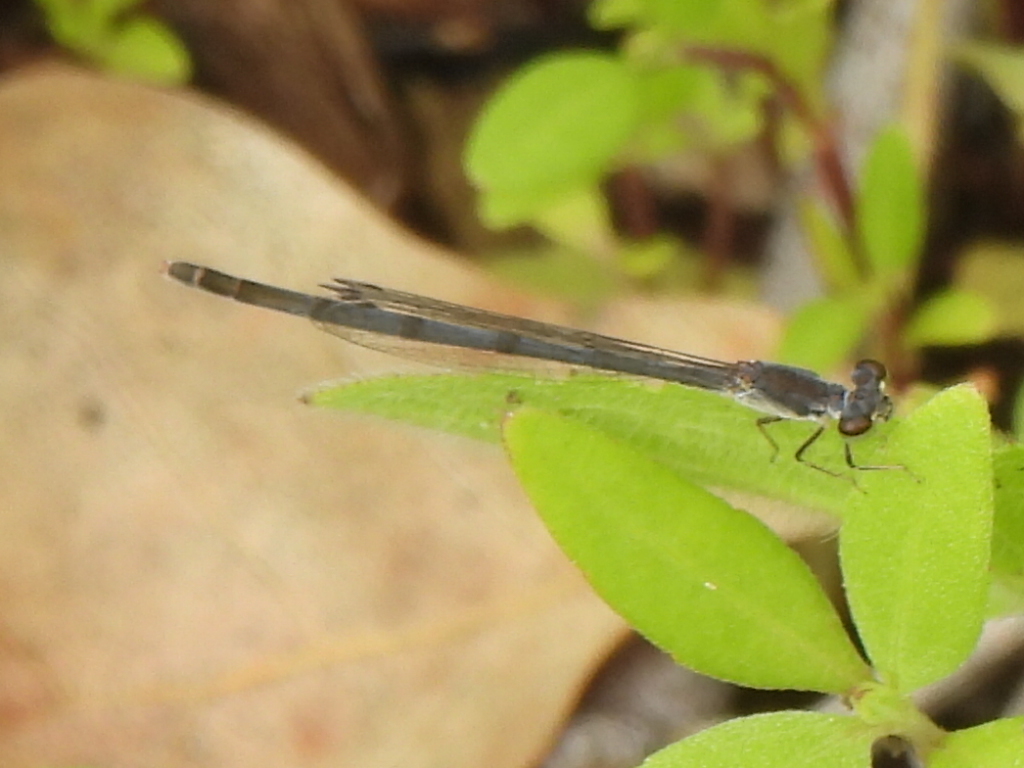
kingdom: Animalia
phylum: Arthropoda
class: Insecta
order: Odonata
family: Coenagrionidae
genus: Ischnura
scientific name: Ischnura posita
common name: Fragile forktail
